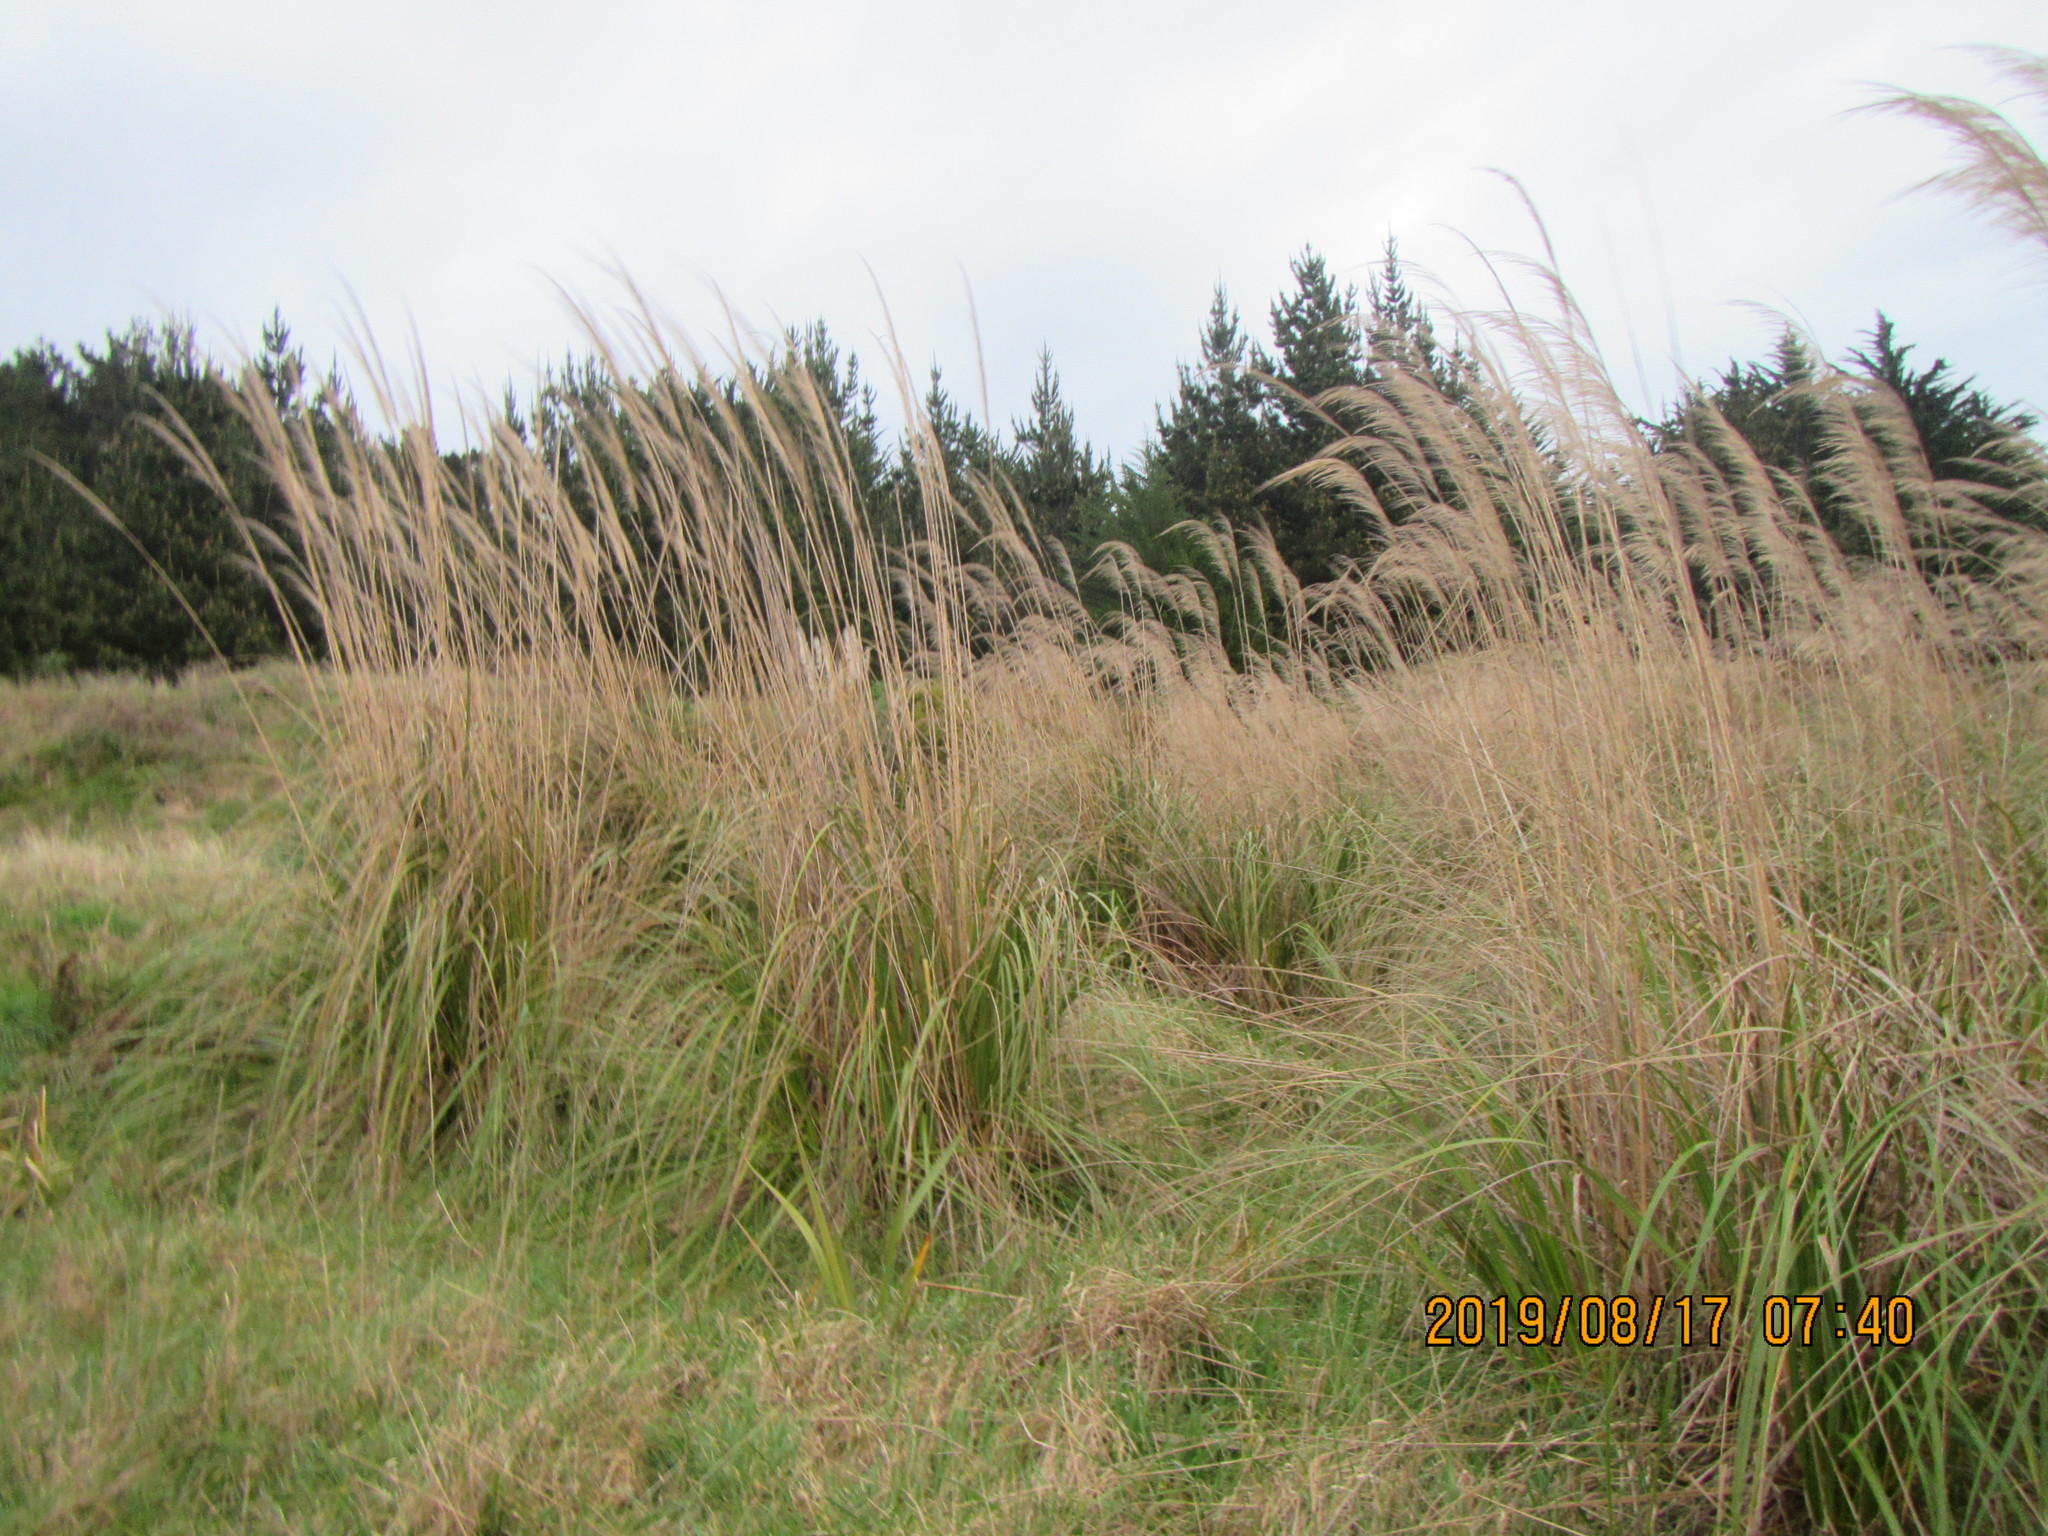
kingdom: Plantae
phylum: Tracheophyta
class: Liliopsida
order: Poales
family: Poaceae
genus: Austroderia
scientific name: Austroderia toetoe
